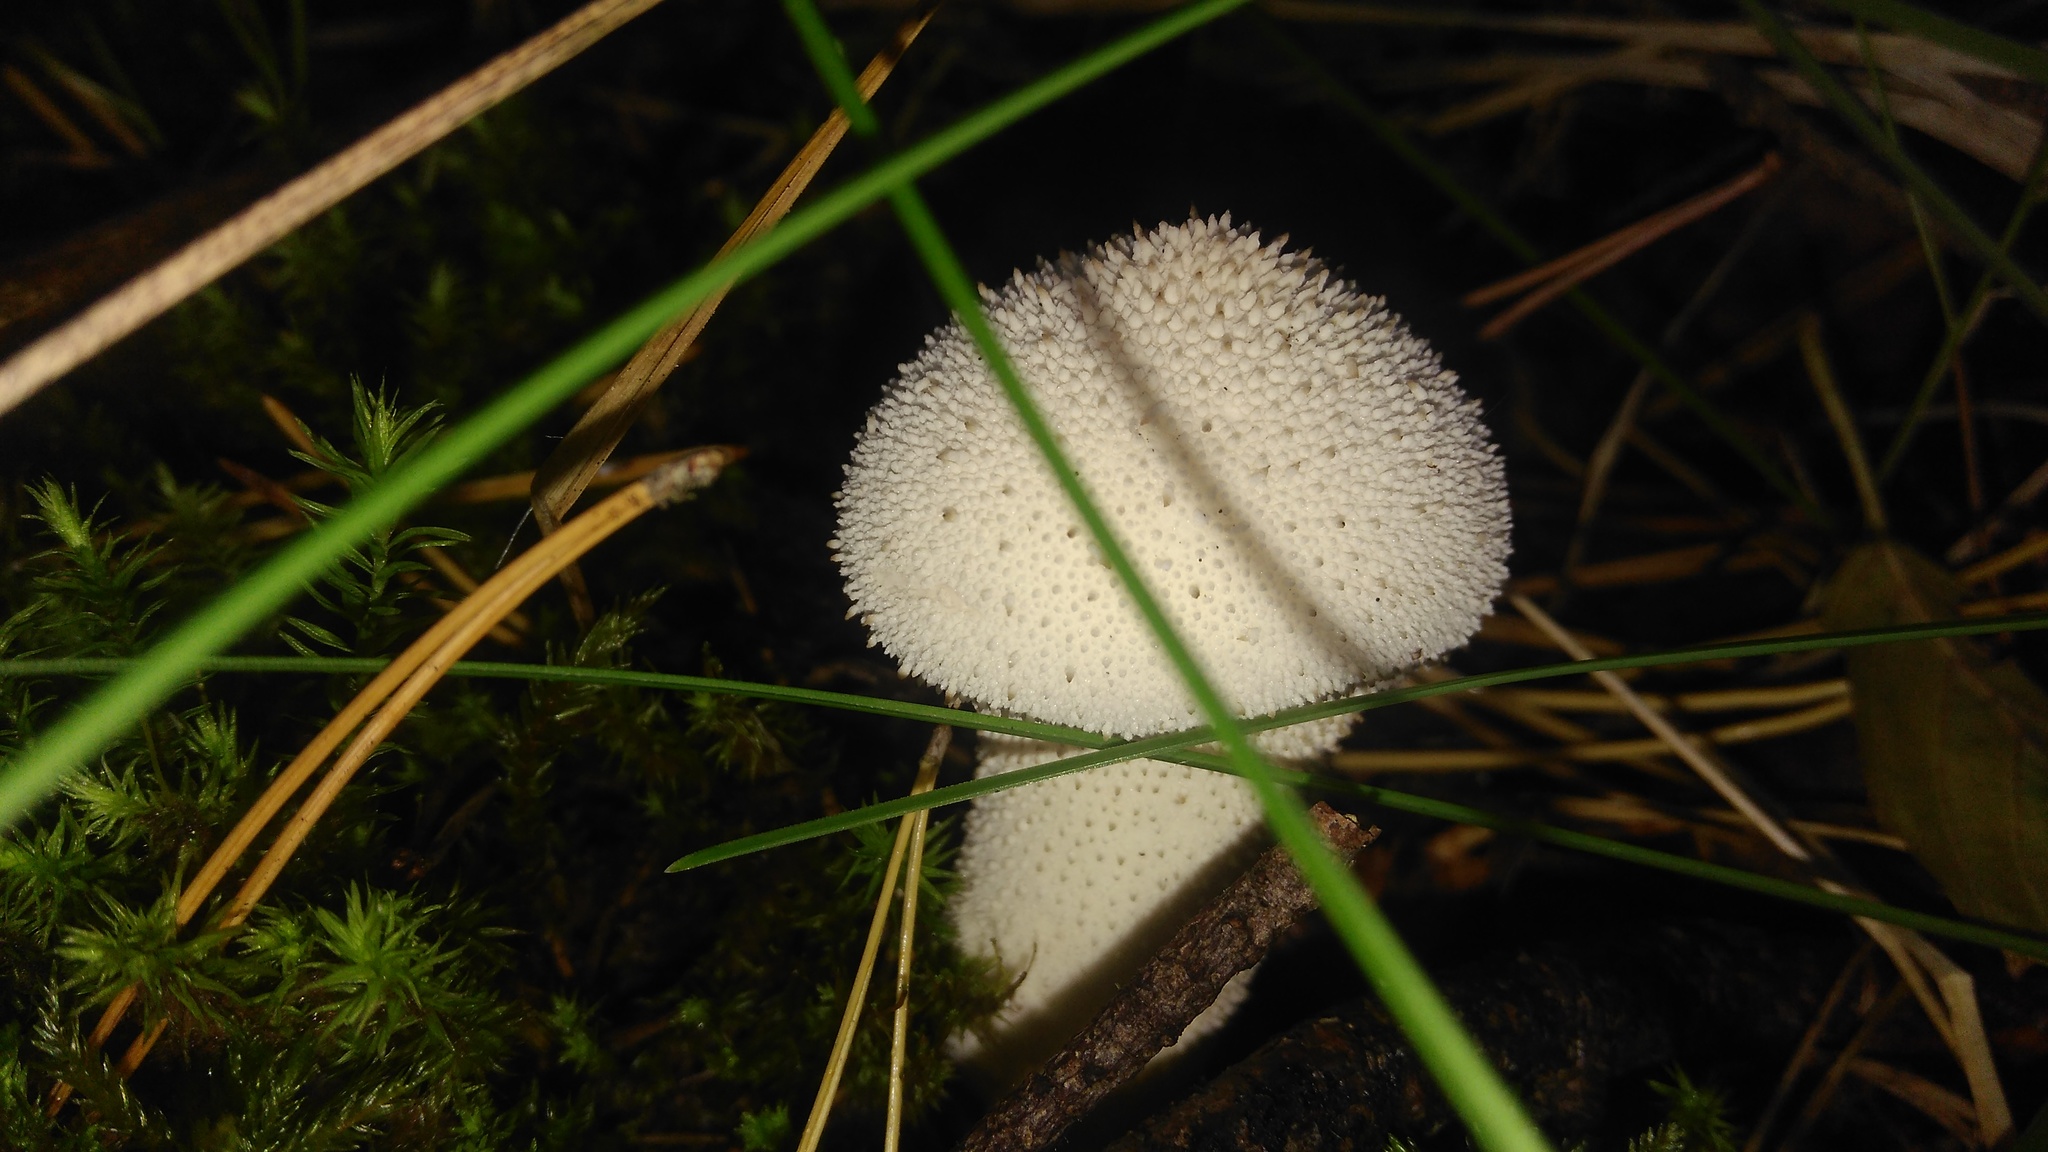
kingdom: Fungi
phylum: Basidiomycota
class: Agaricomycetes
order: Agaricales
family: Lycoperdaceae
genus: Lycoperdon
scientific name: Lycoperdon perlatum
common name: Common puffball
